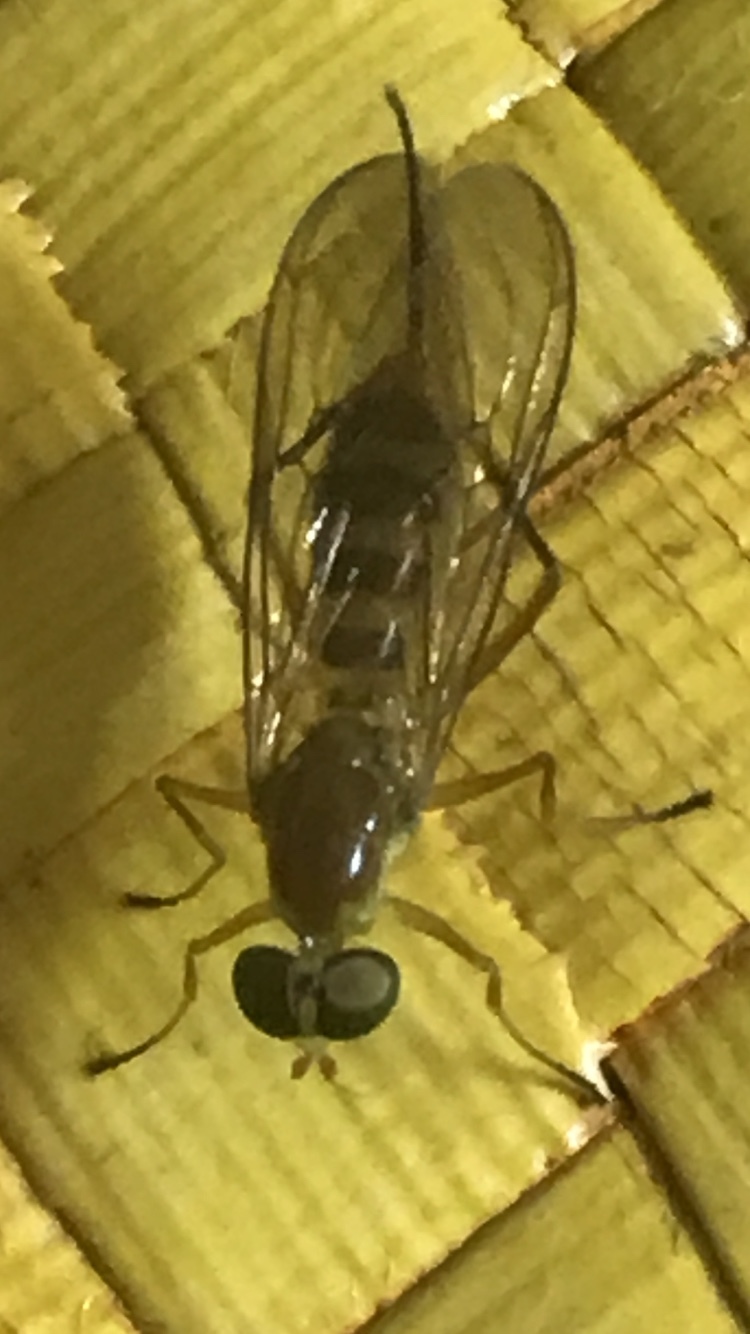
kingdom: Animalia
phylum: Arthropoda
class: Insecta
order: Diptera
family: Stratiomyidae
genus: Ptecticus
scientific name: Ptecticus trivittatus
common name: Compost fly
